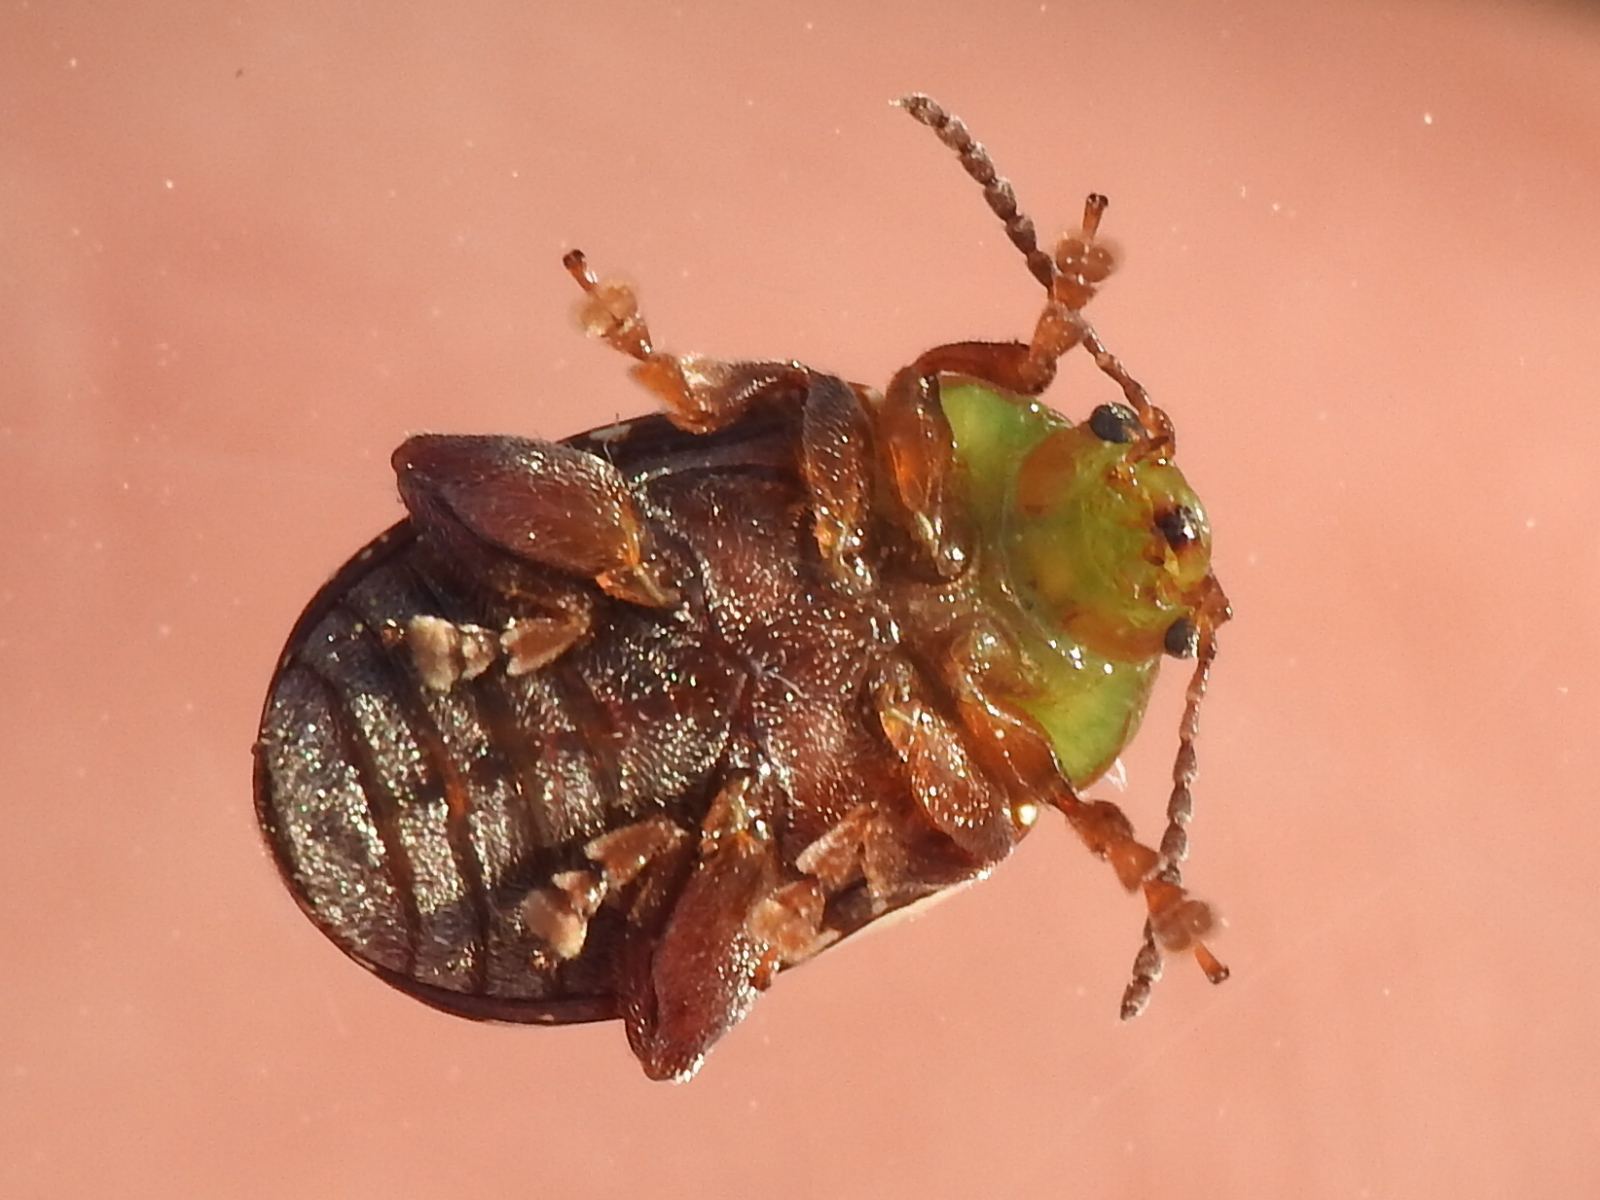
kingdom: Animalia
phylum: Arthropoda
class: Insecta
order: Coleoptera
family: Chrysomelidae
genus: Blepharida
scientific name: Blepharida rhois
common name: Sumac flea beetle
